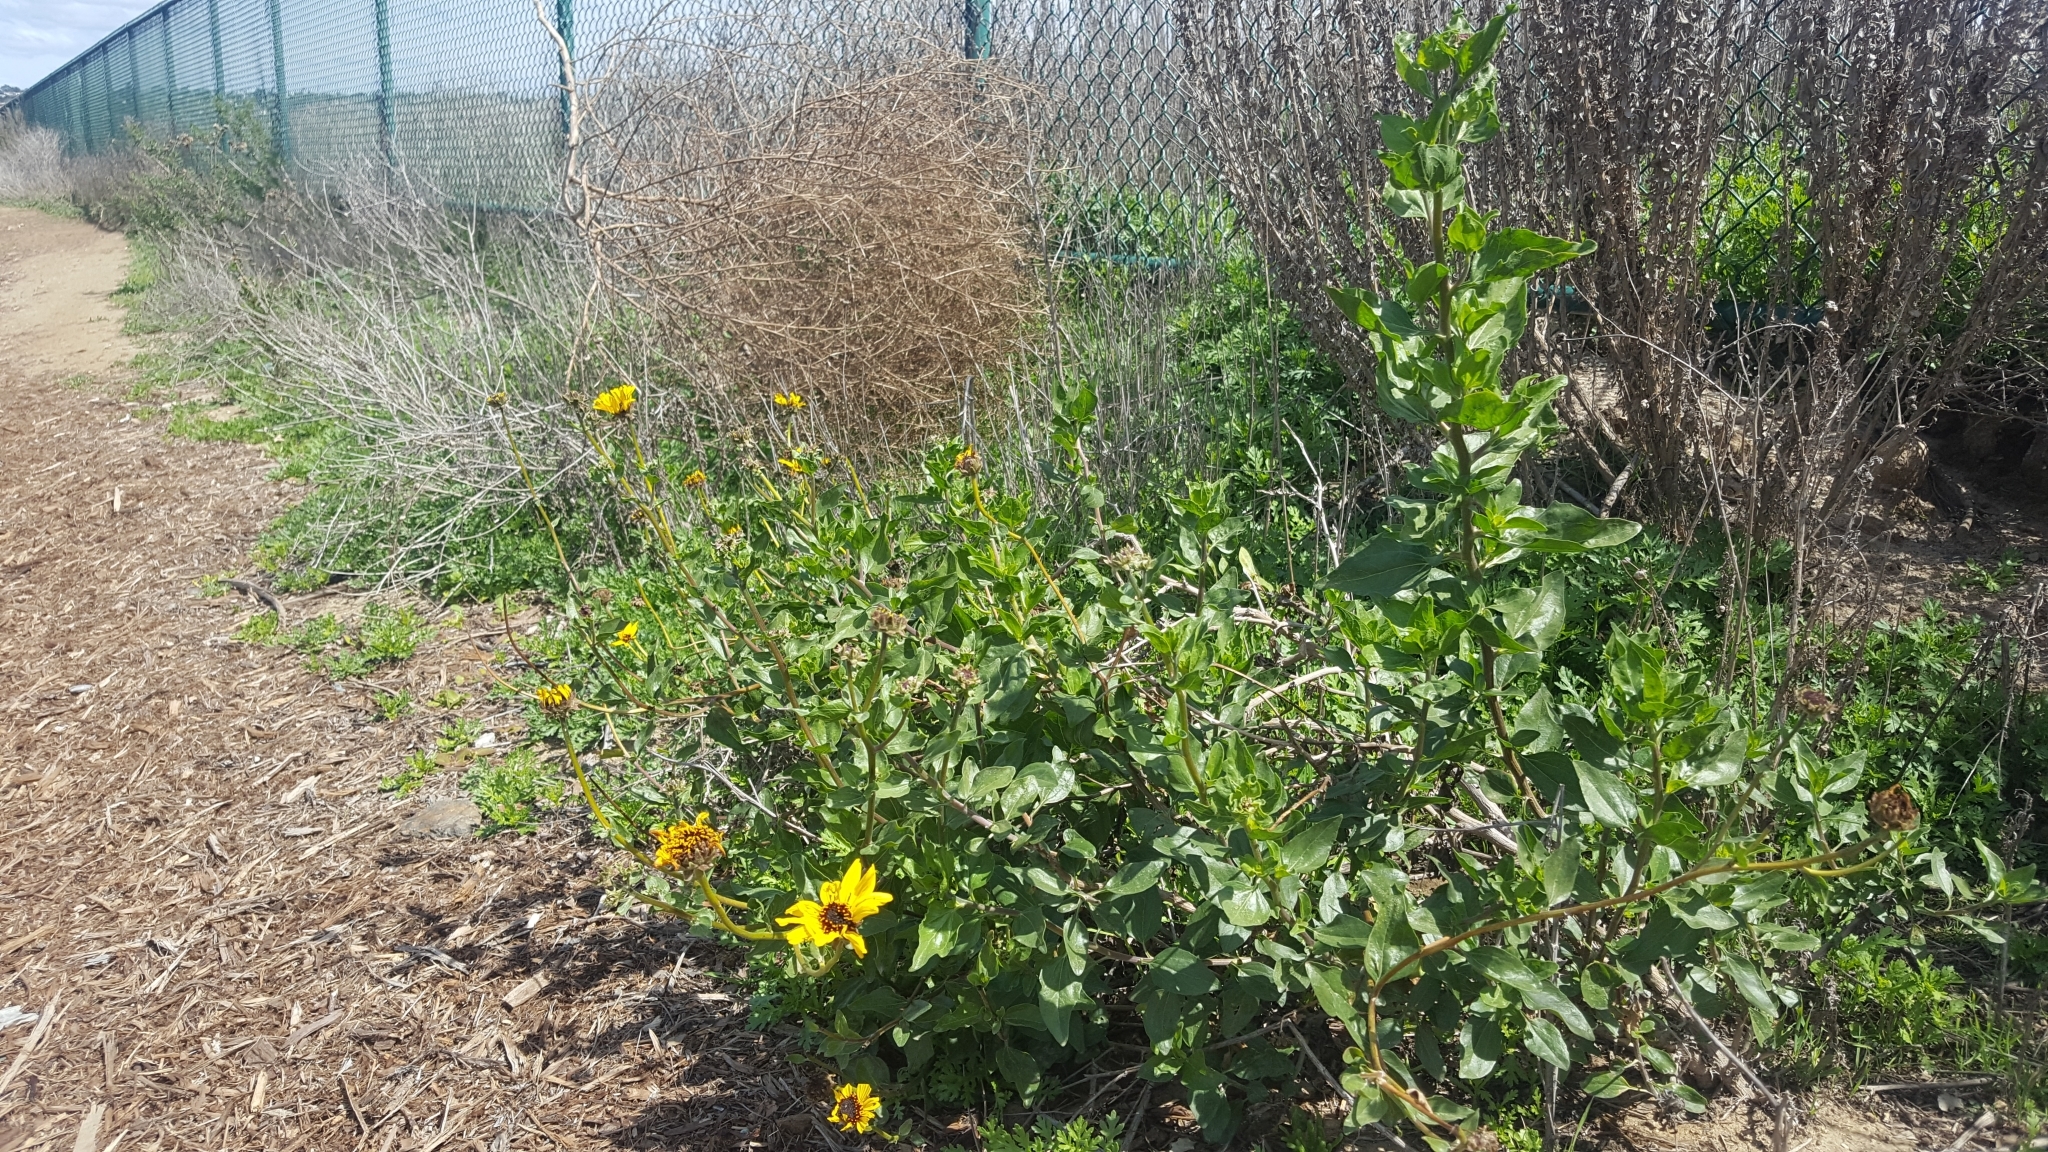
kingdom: Plantae
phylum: Tracheophyta
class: Magnoliopsida
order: Asterales
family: Asteraceae
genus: Encelia
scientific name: Encelia californica
